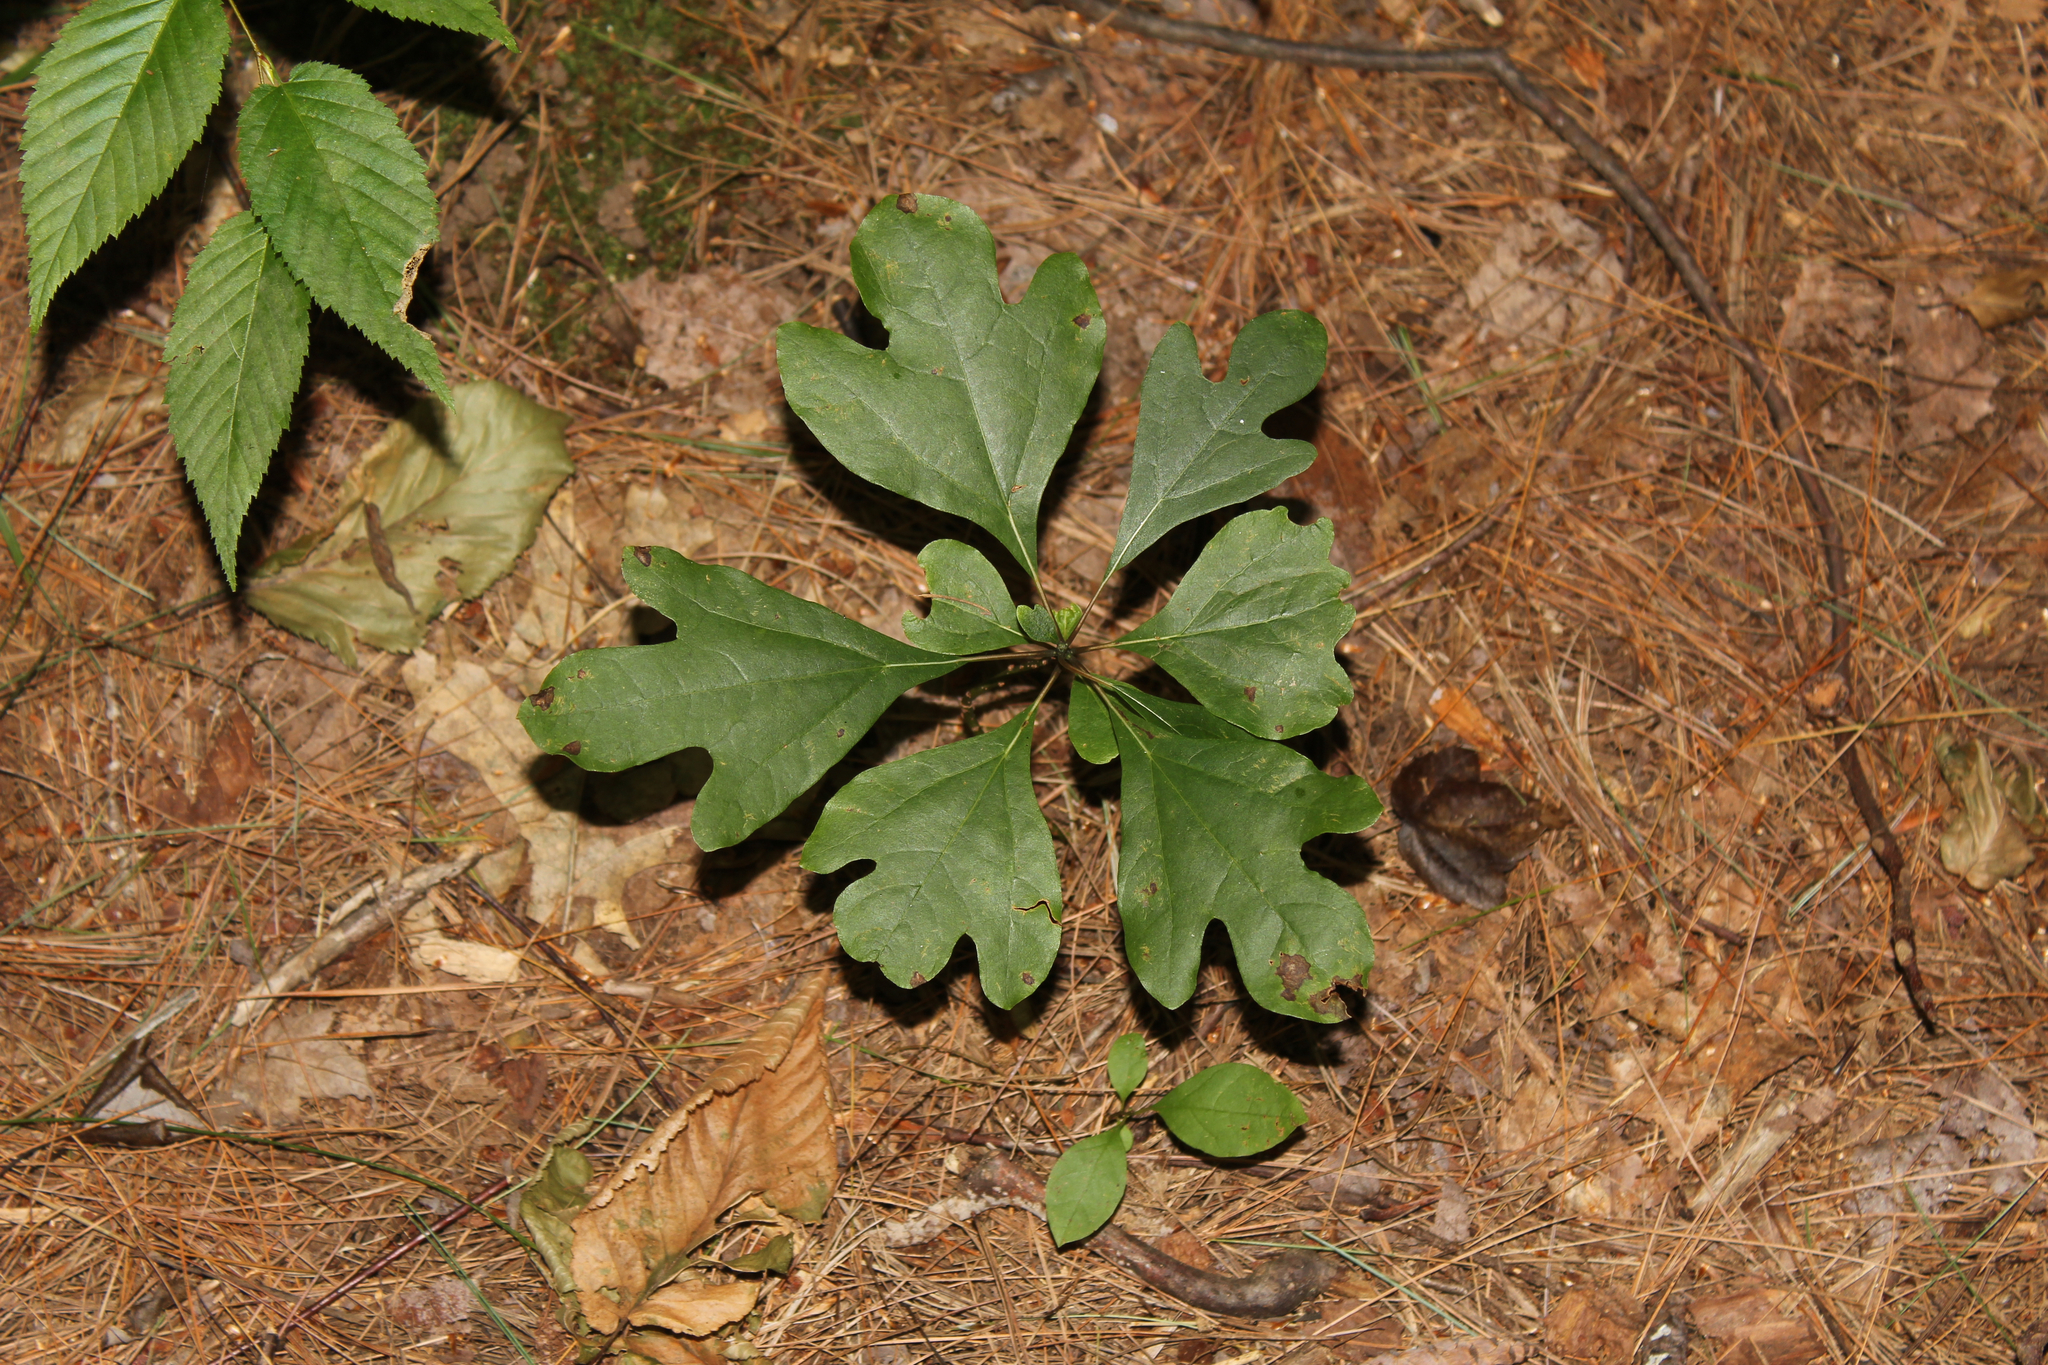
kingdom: Plantae
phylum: Tracheophyta
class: Magnoliopsida
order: Laurales
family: Lauraceae
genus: Sassafras
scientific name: Sassafras albidum
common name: Sassafras
